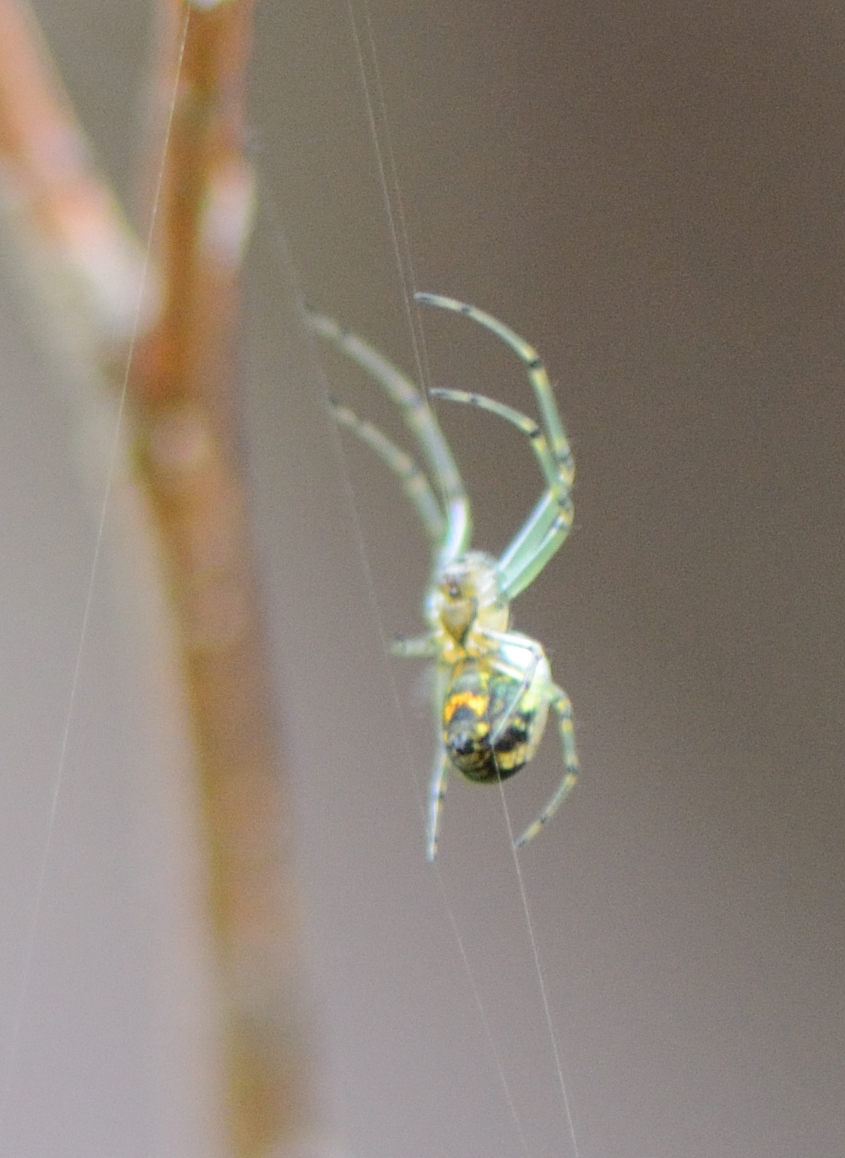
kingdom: Animalia
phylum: Arthropoda
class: Arachnida
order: Araneae
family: Tetragnathidae
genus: Leucauge
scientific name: Leucauge venusta
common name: Longjawed orb weavers
